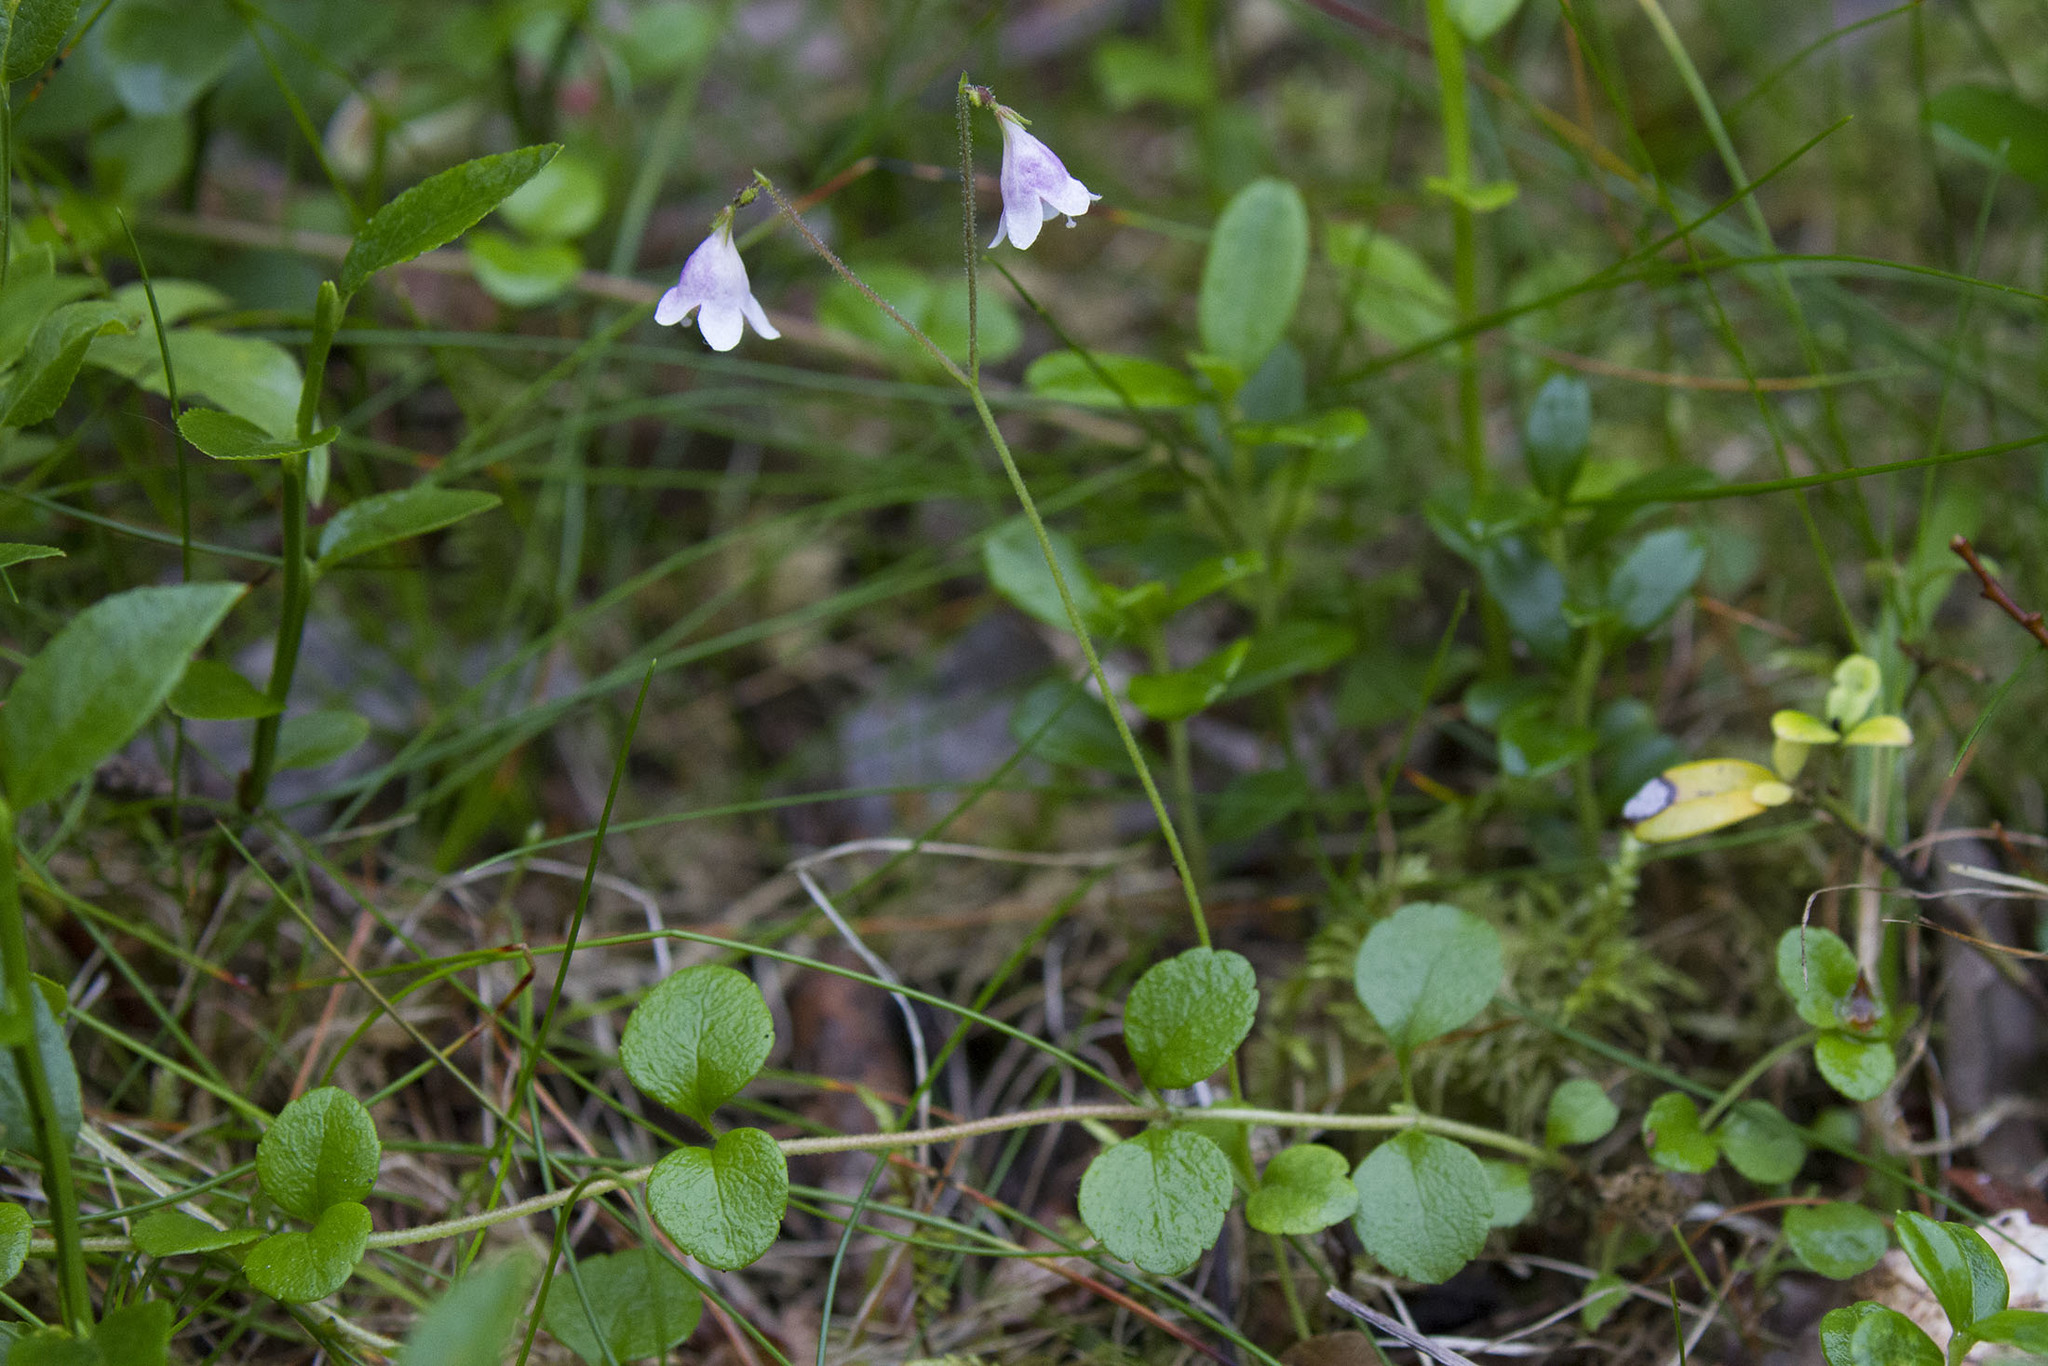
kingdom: Plantae
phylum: Tracheophyta
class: Magnoliopsida
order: Dipsacales
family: Caprifoliaceae
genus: Linnaea
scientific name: Linnaea borealis
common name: Twinflower
